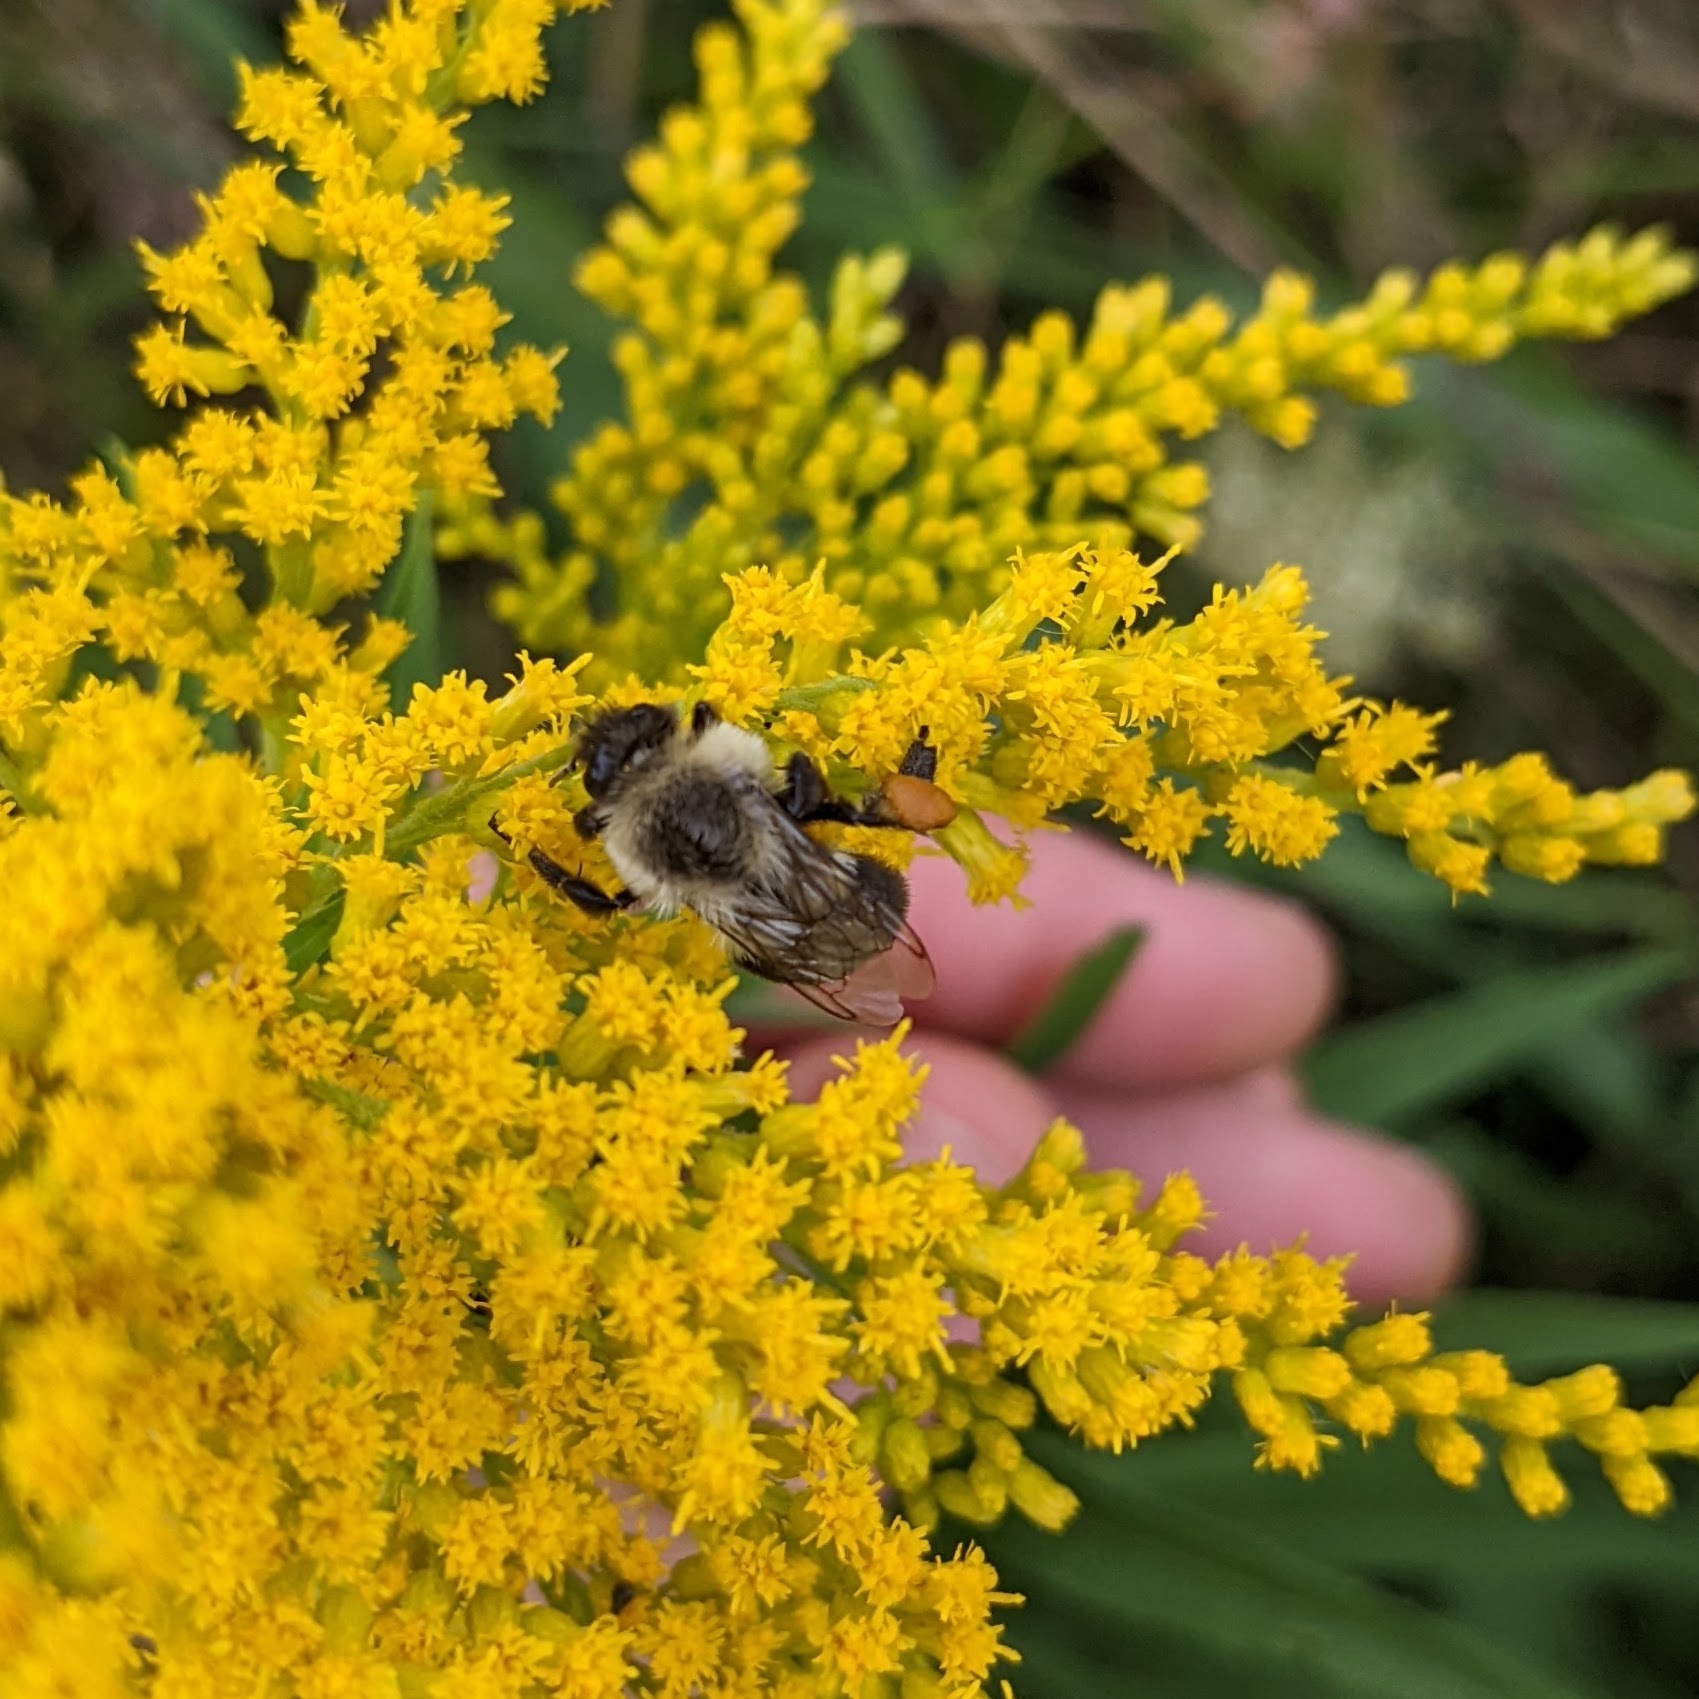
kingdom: Animalia
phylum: Arthropoda
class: Insecta
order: Hymenoptera
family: Apidae
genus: Bombus
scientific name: Bombus impatiens
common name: Common eastern bumble bee
